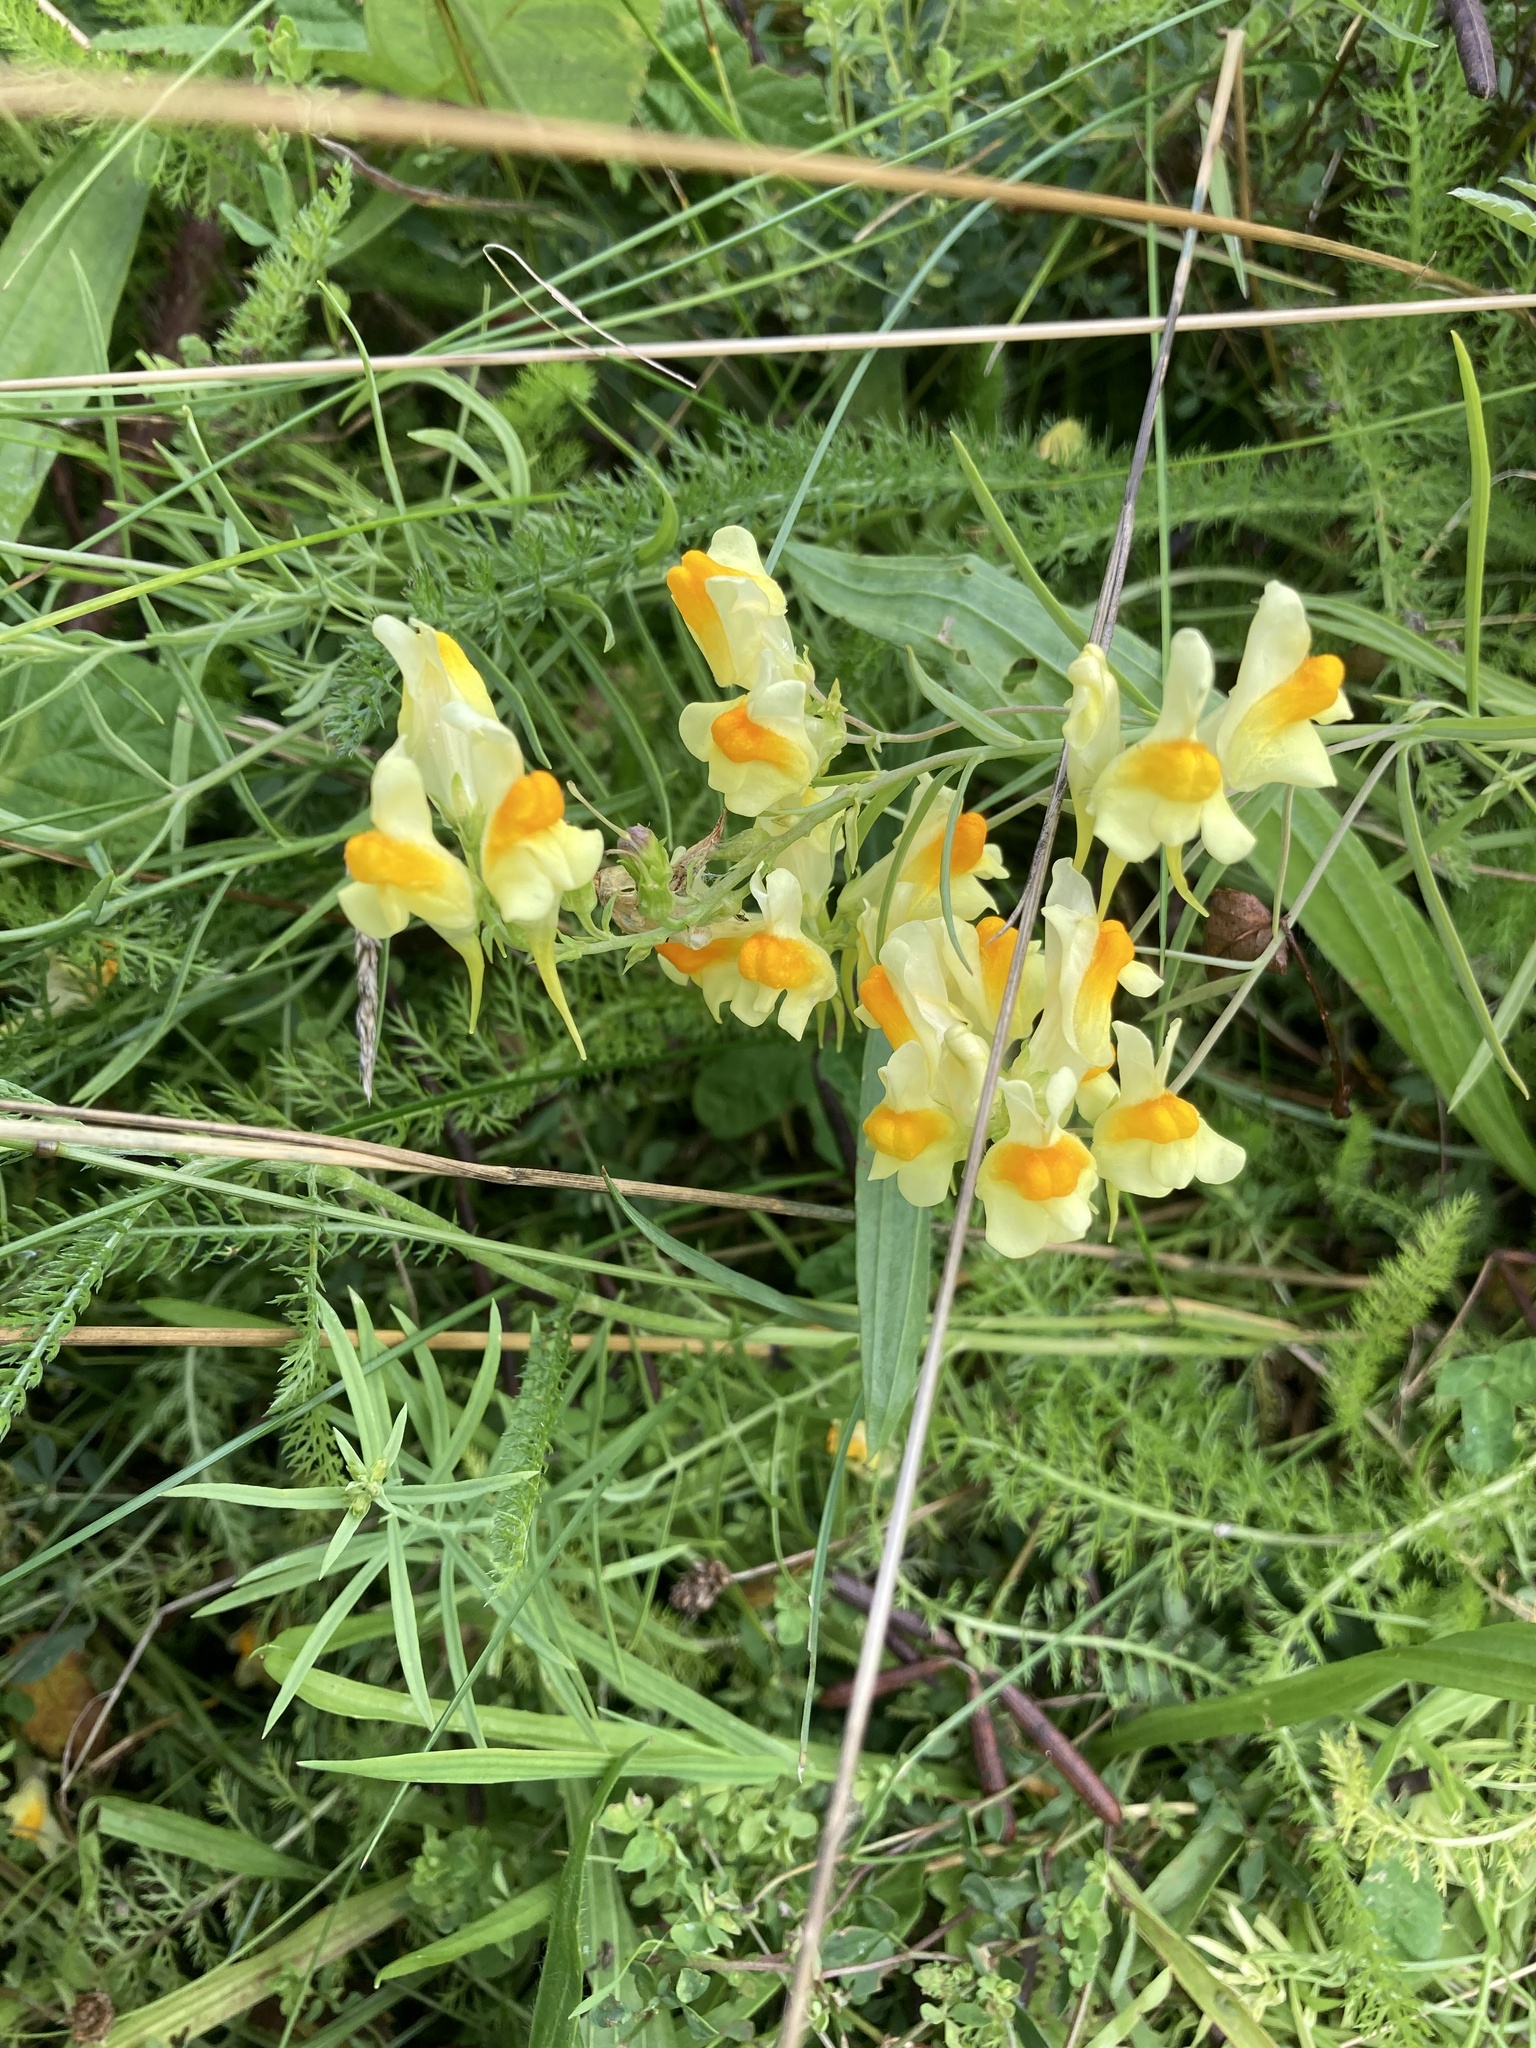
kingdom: Plantae
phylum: Tracheophyta
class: Magnoliopsida
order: Lamiales
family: Plantaginaceae
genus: Linaria
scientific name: Linaria vulgaris
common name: Butter and eggs
